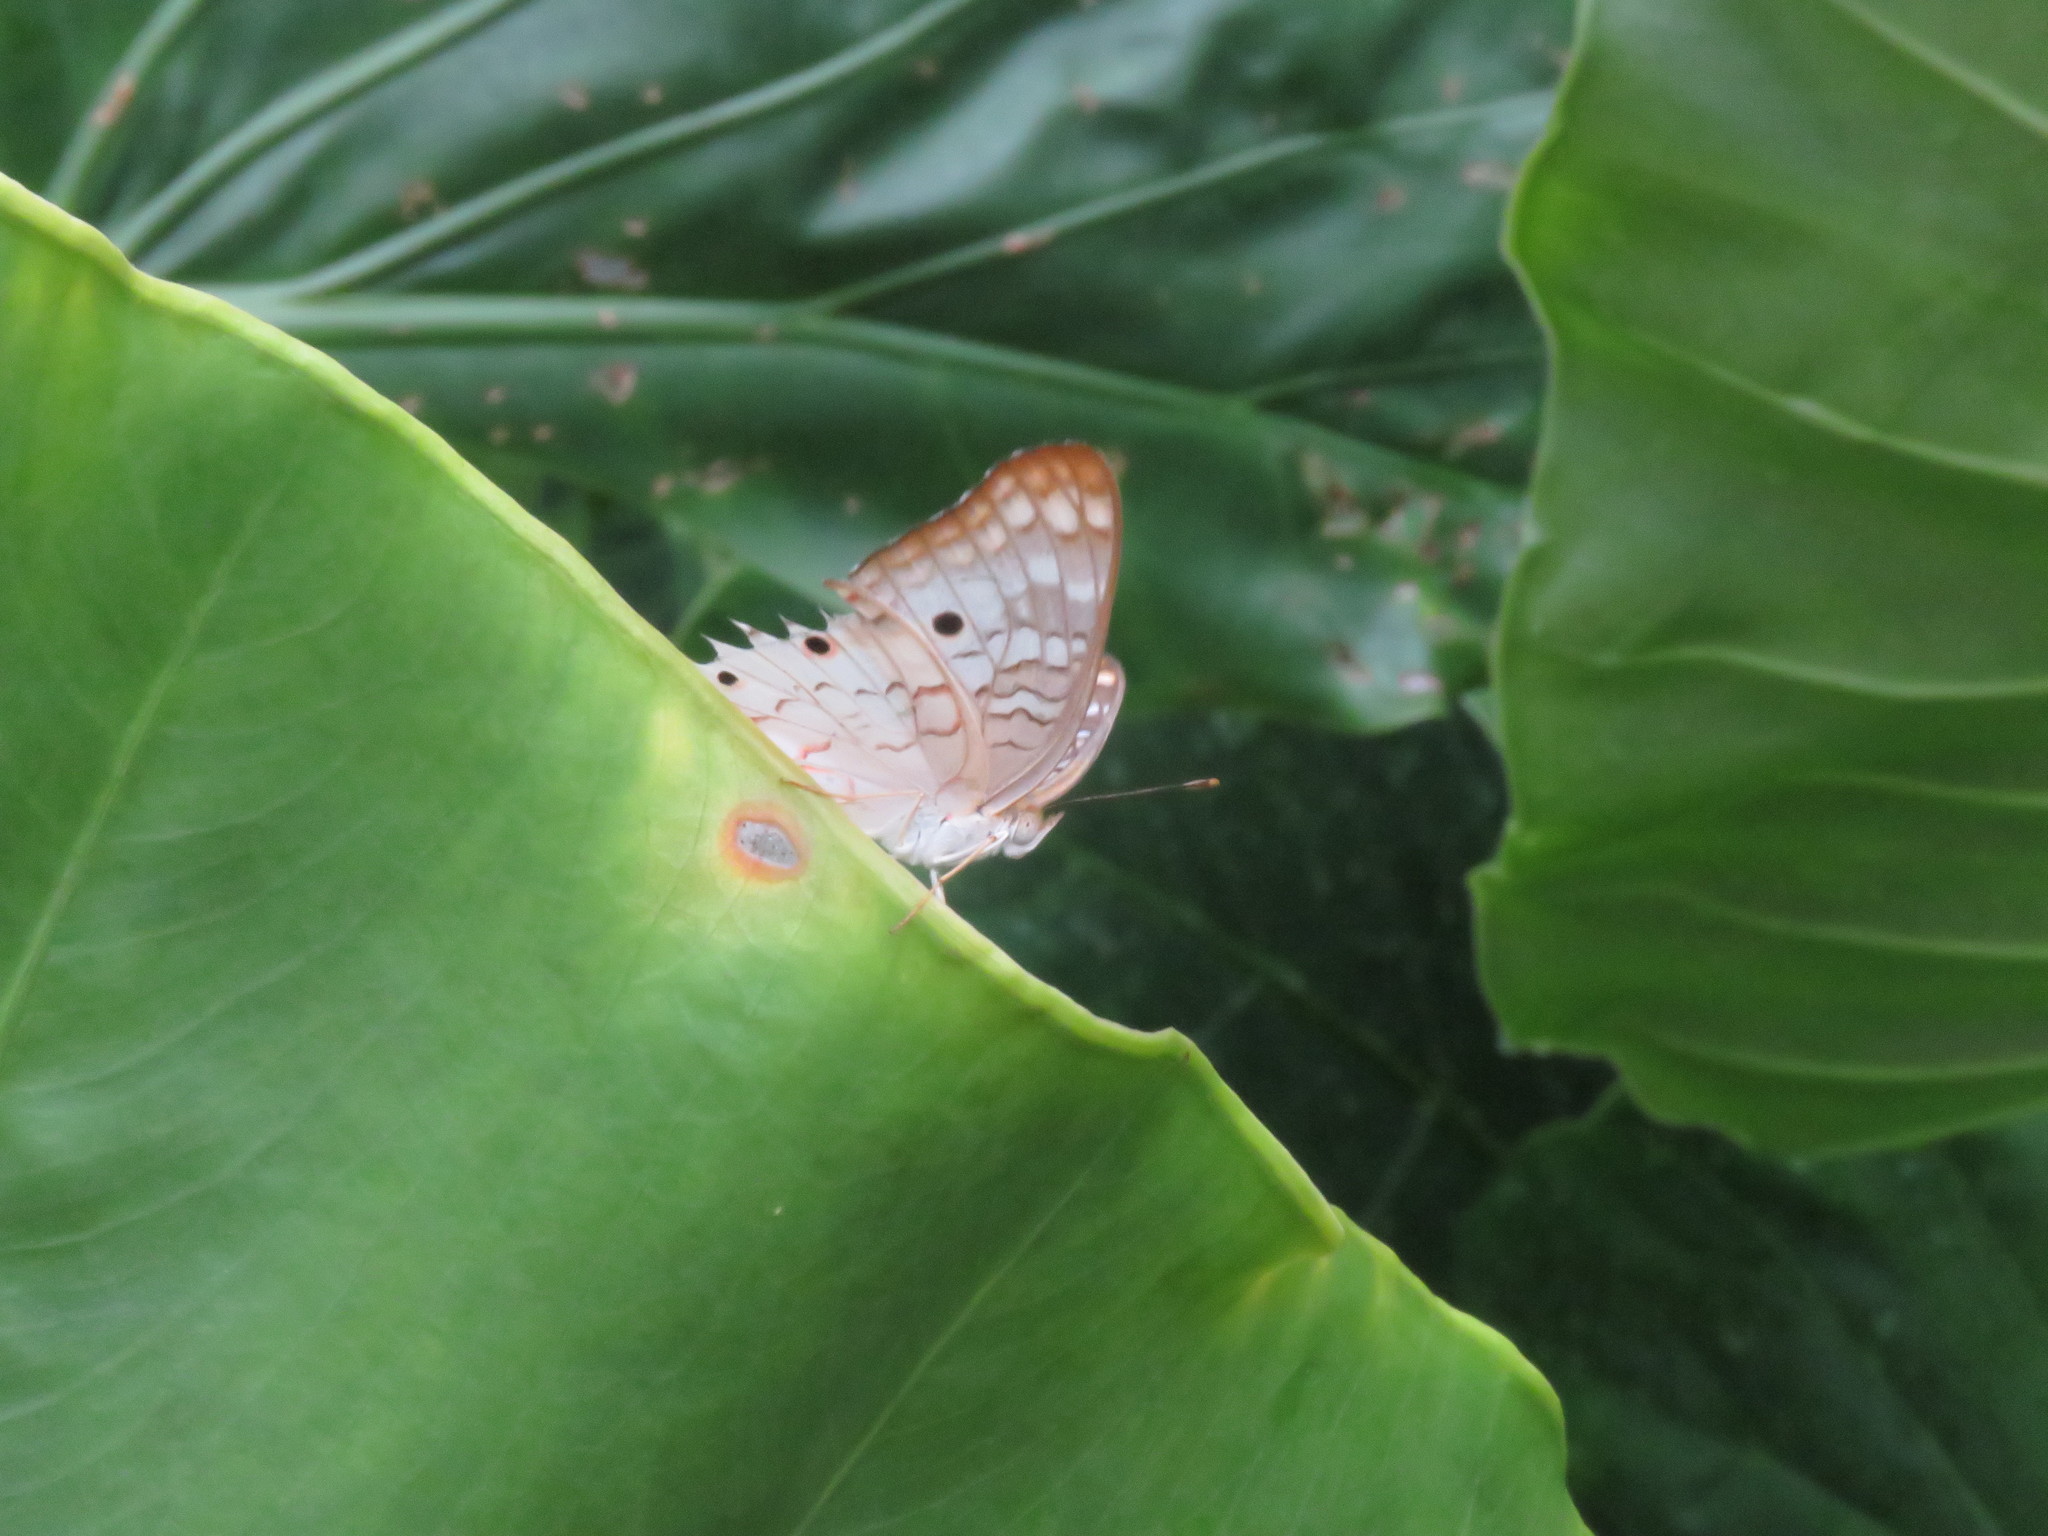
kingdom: Animalia
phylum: Arthropoda
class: Insecta
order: Lepidoptera
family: Nymphalidae
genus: Anartia
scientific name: Anartia jatrophae
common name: White peacock
